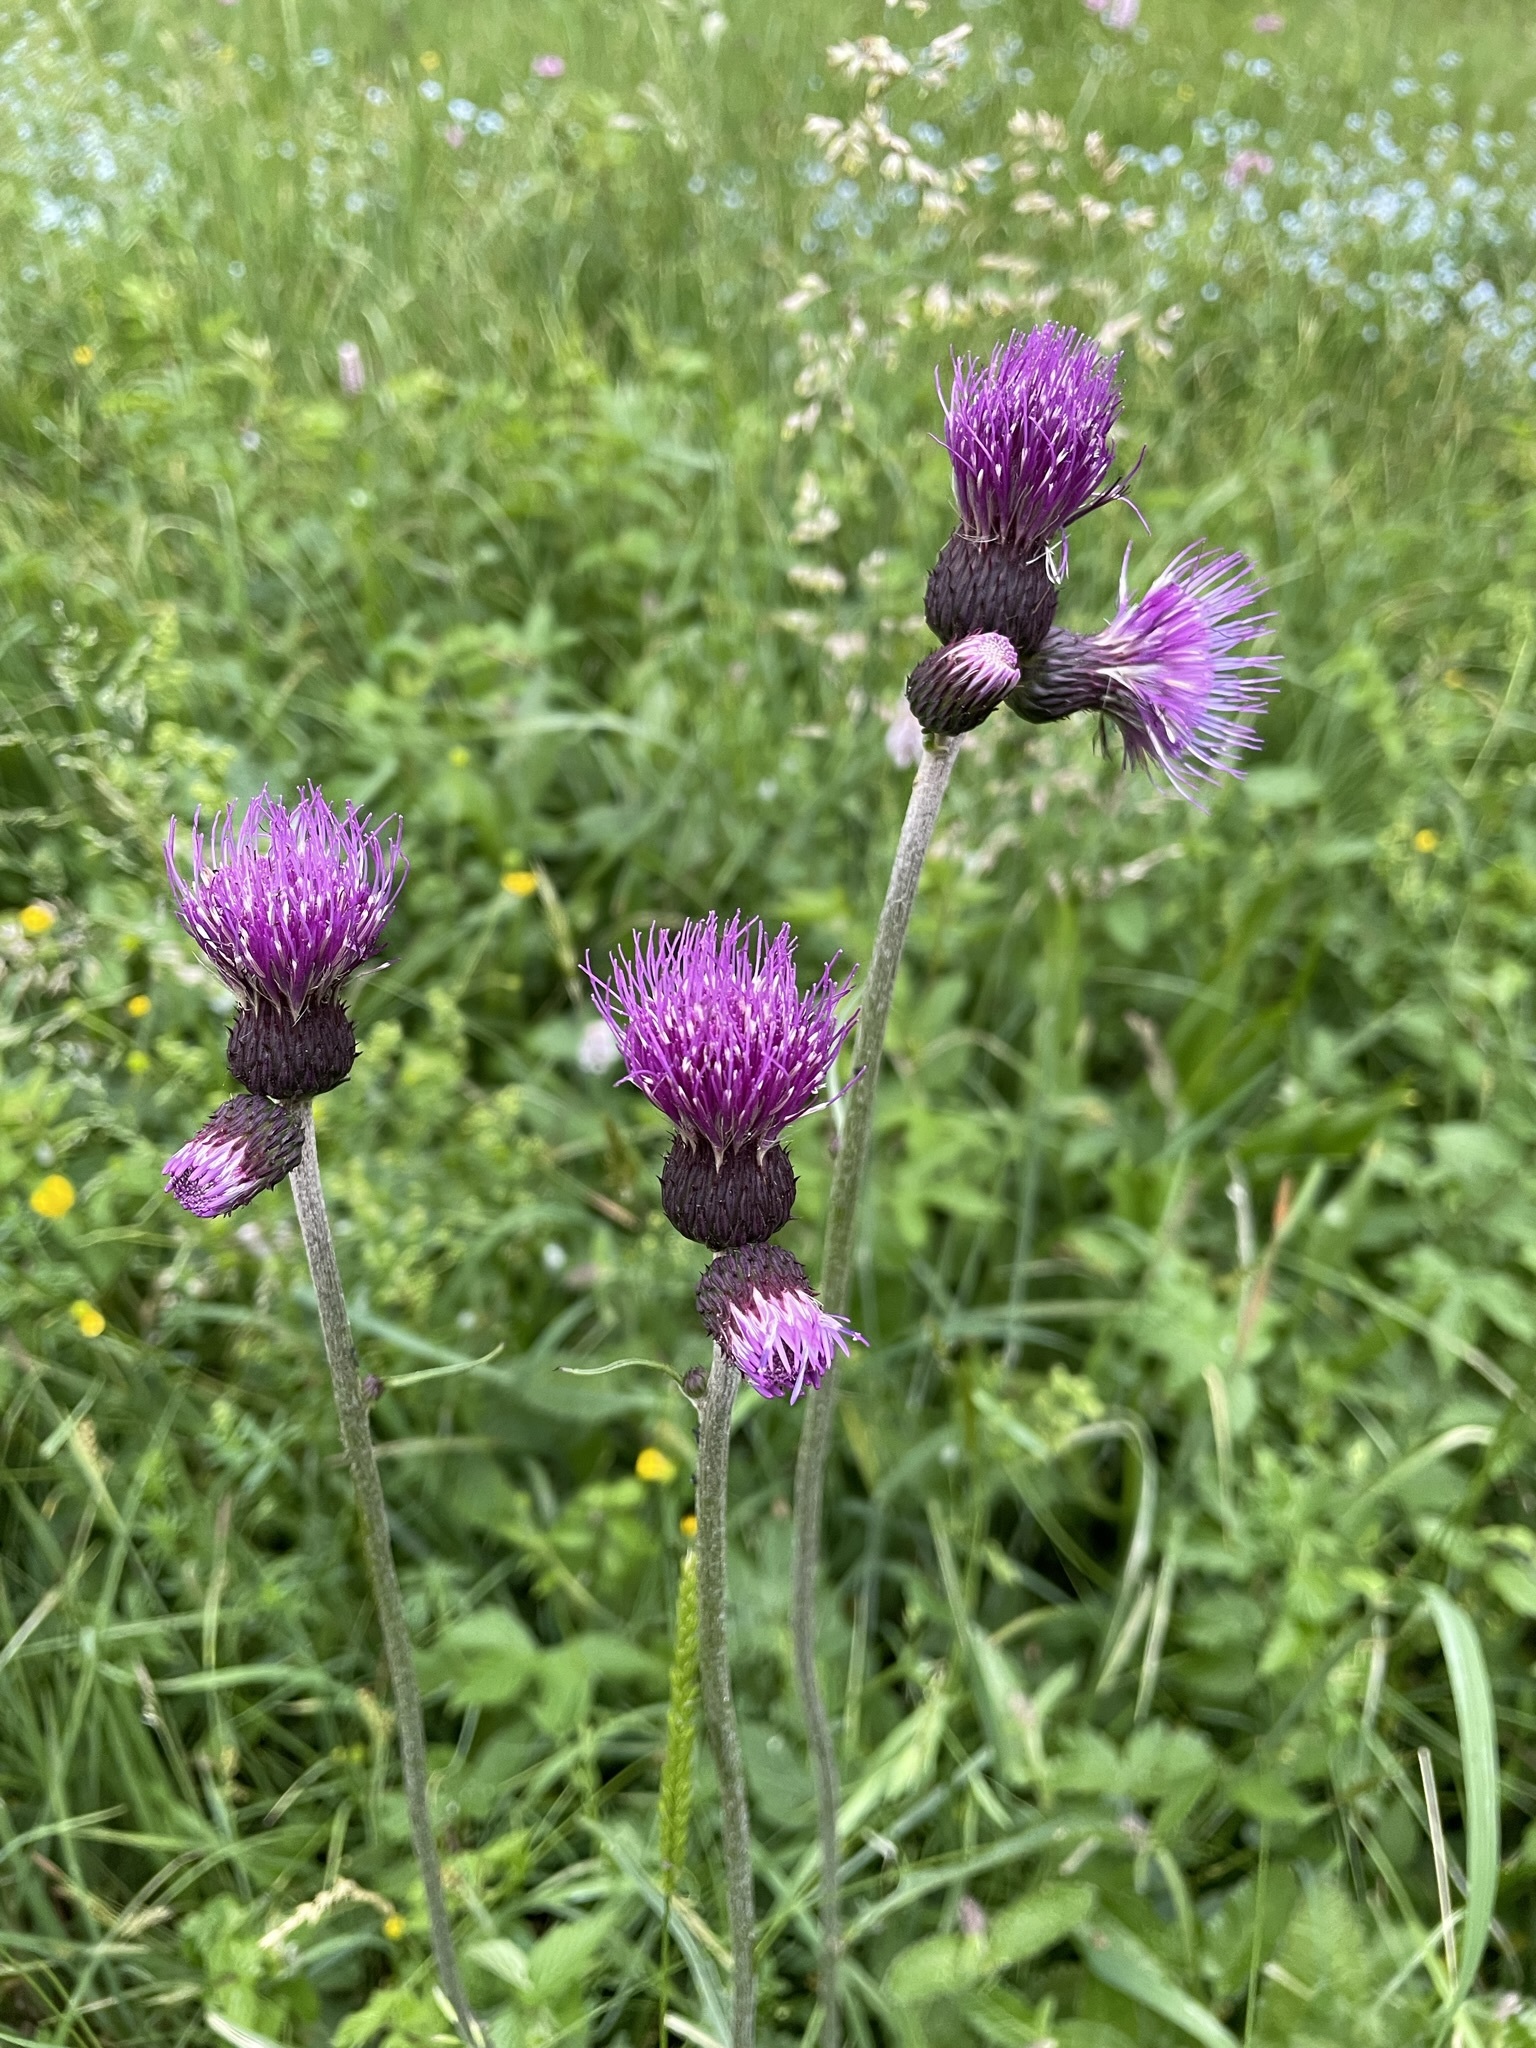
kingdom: Plantae
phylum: Tracheophyta
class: Magnoliopsida
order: Asterales
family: Asteraceae
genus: Cirsium
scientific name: Cirsium rivulare
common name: Brook thistle
